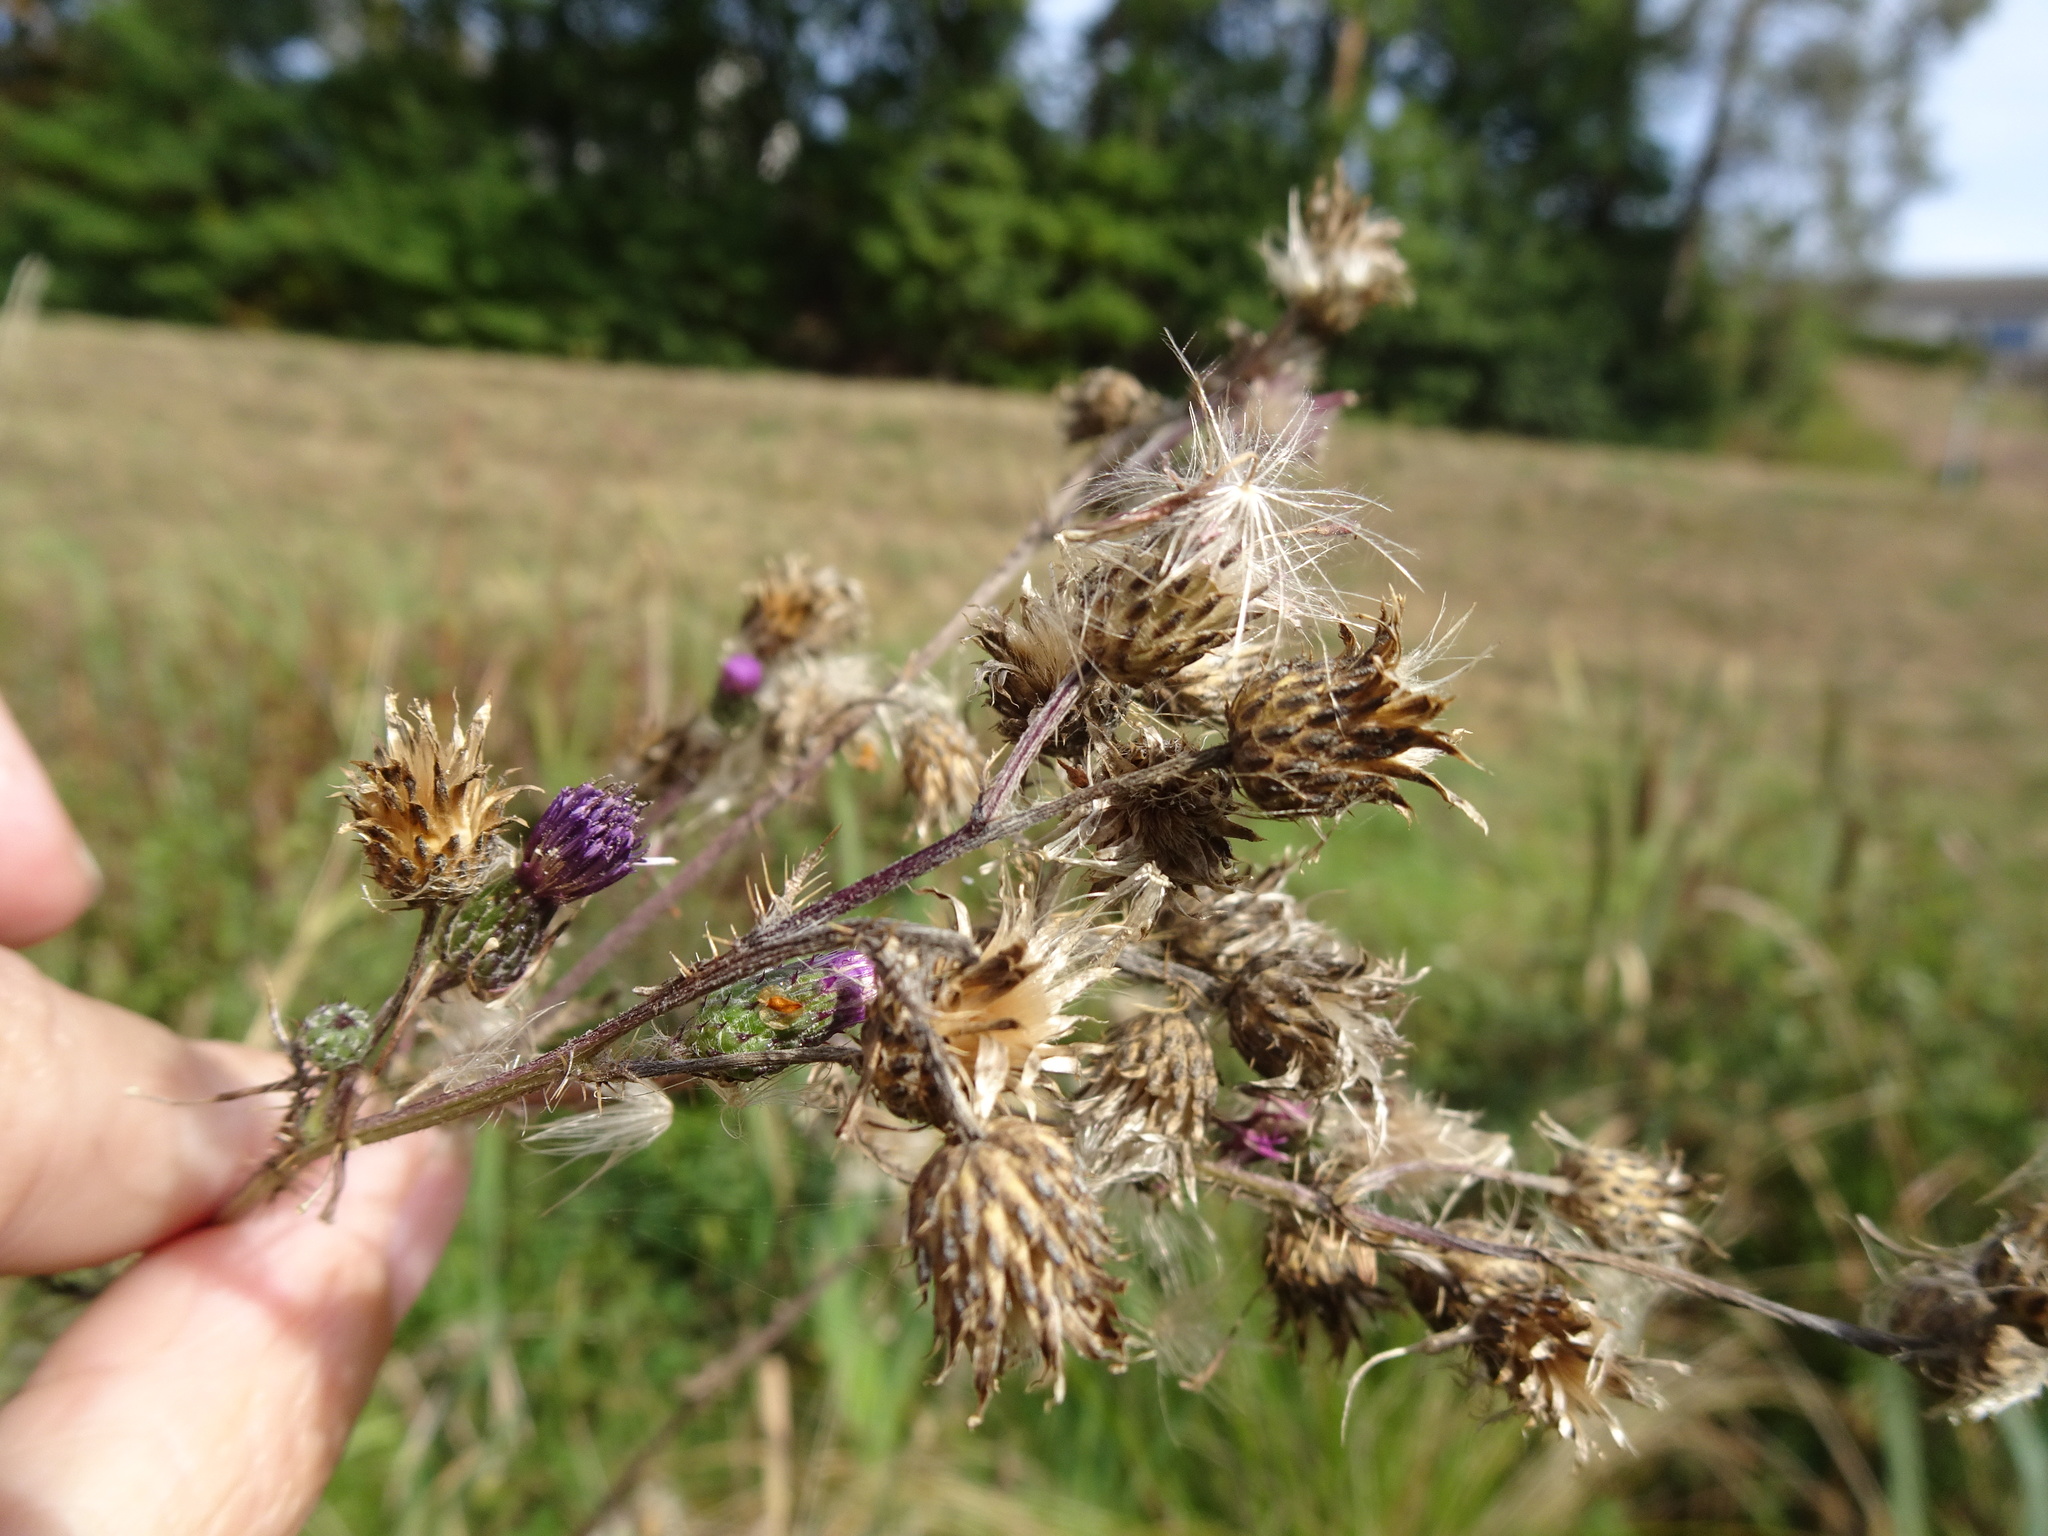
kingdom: Plantae
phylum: Tracheophyta
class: Magnoliopsida
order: Asterales
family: Asteraceae
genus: Cirsium
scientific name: Cirsium palustre
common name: Marsh thistle
